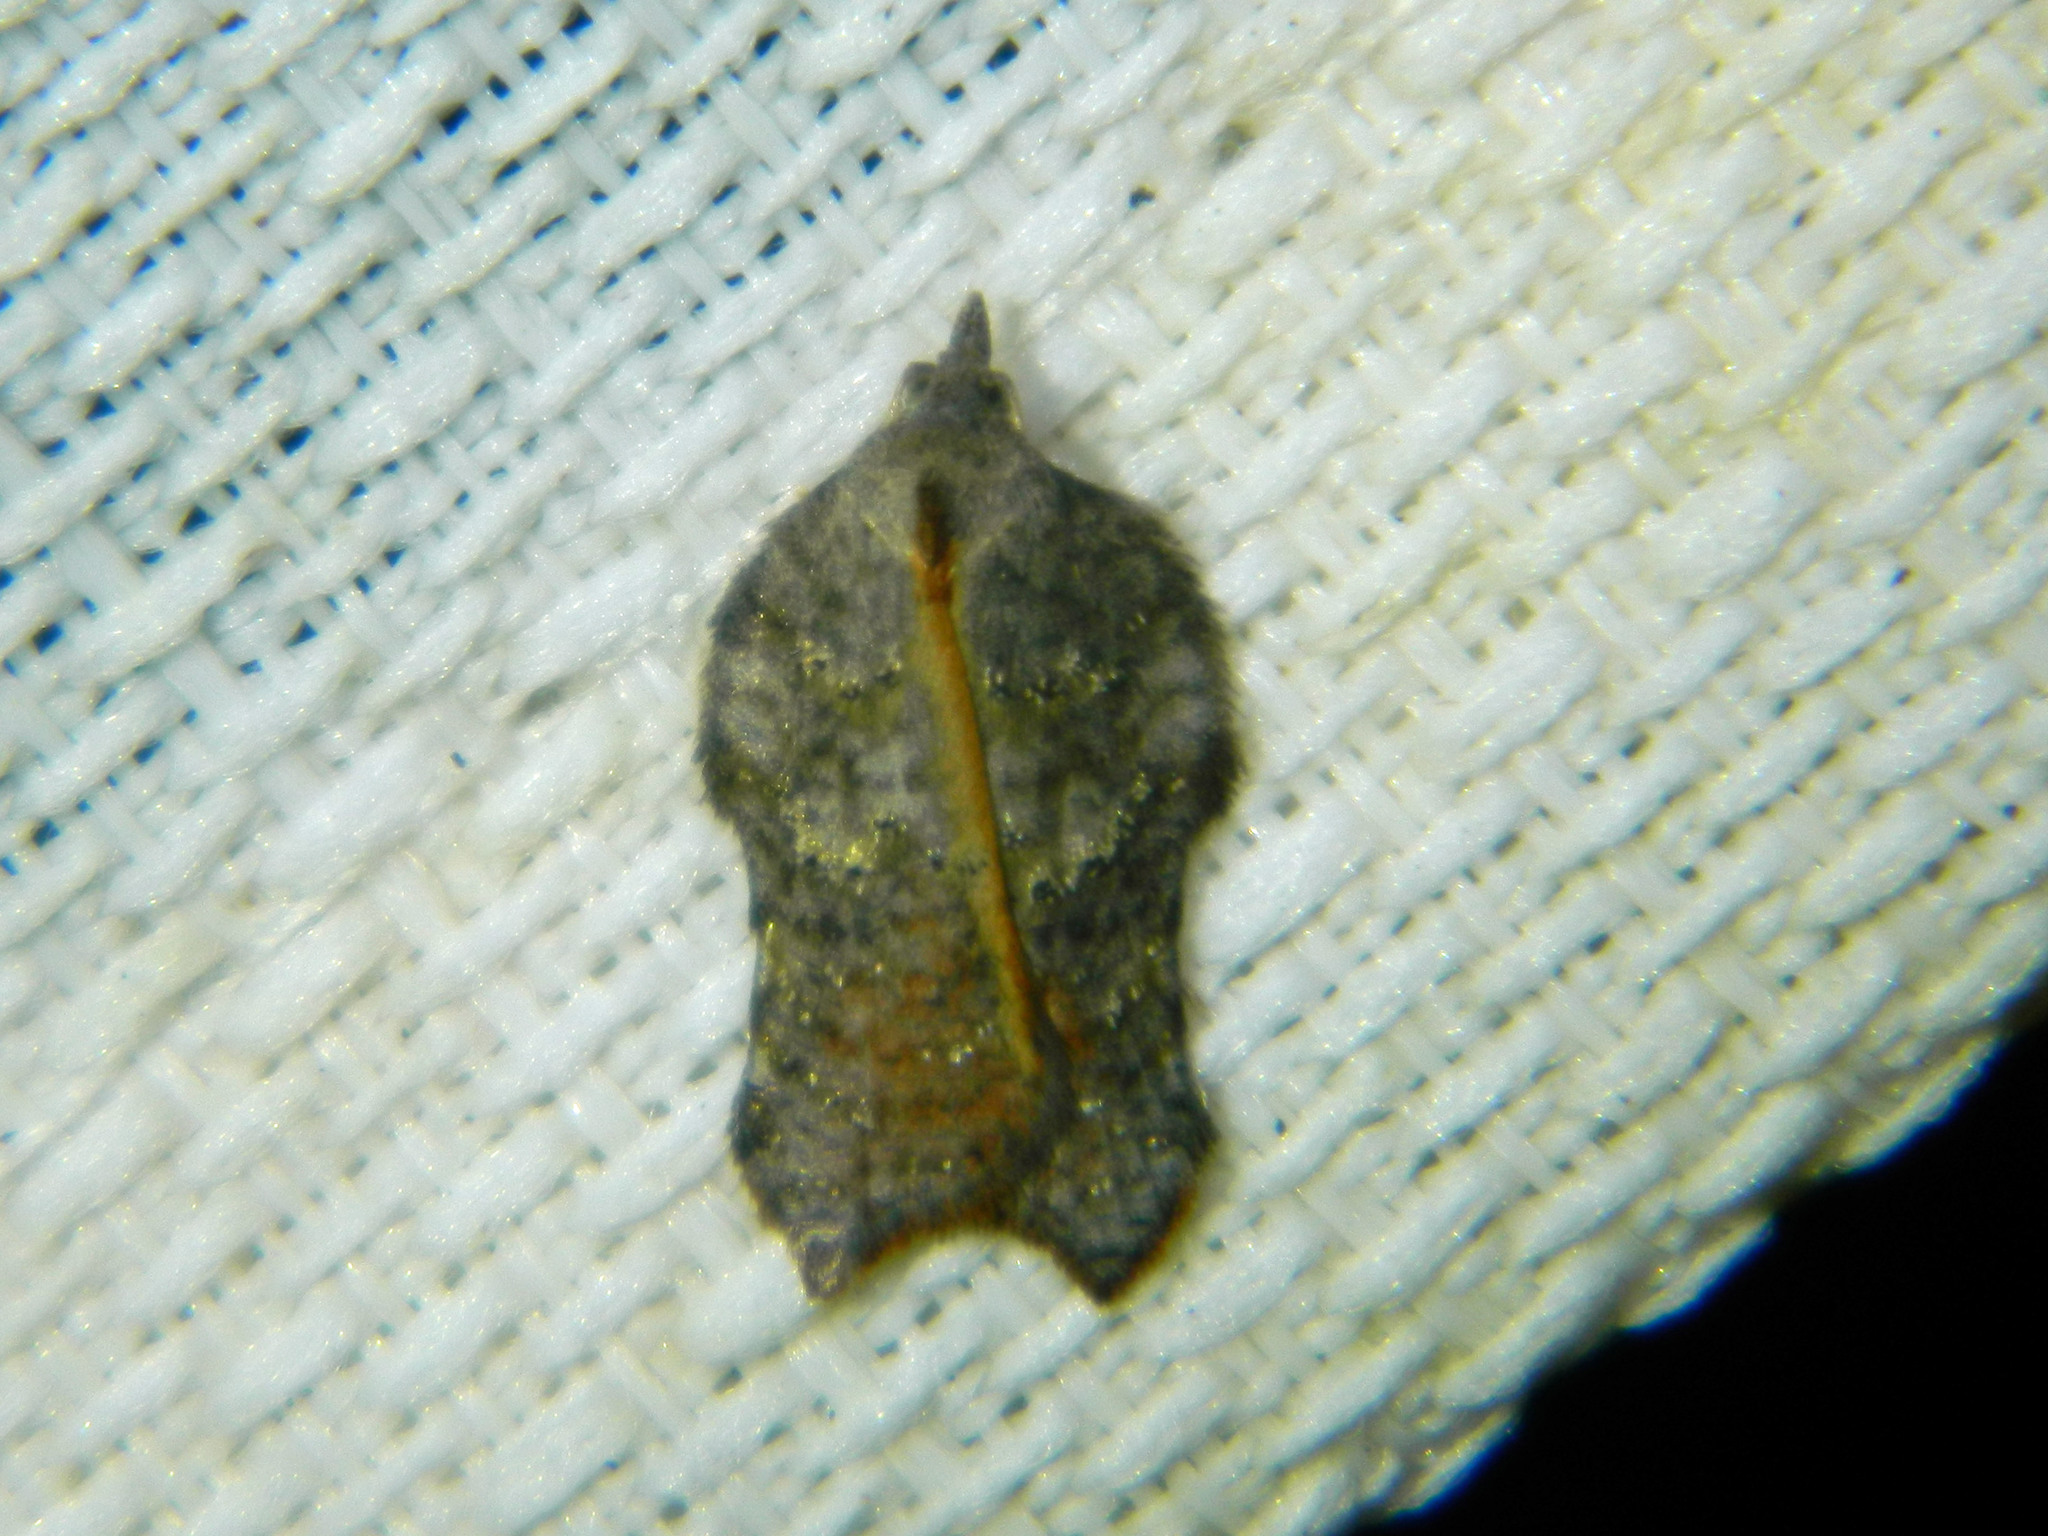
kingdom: Animalia
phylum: Arthropoda
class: Insecta
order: Lepidoptera
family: Tortricidae
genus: Acleris
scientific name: Acleris effractana
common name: Hook-winged tortrix moth
